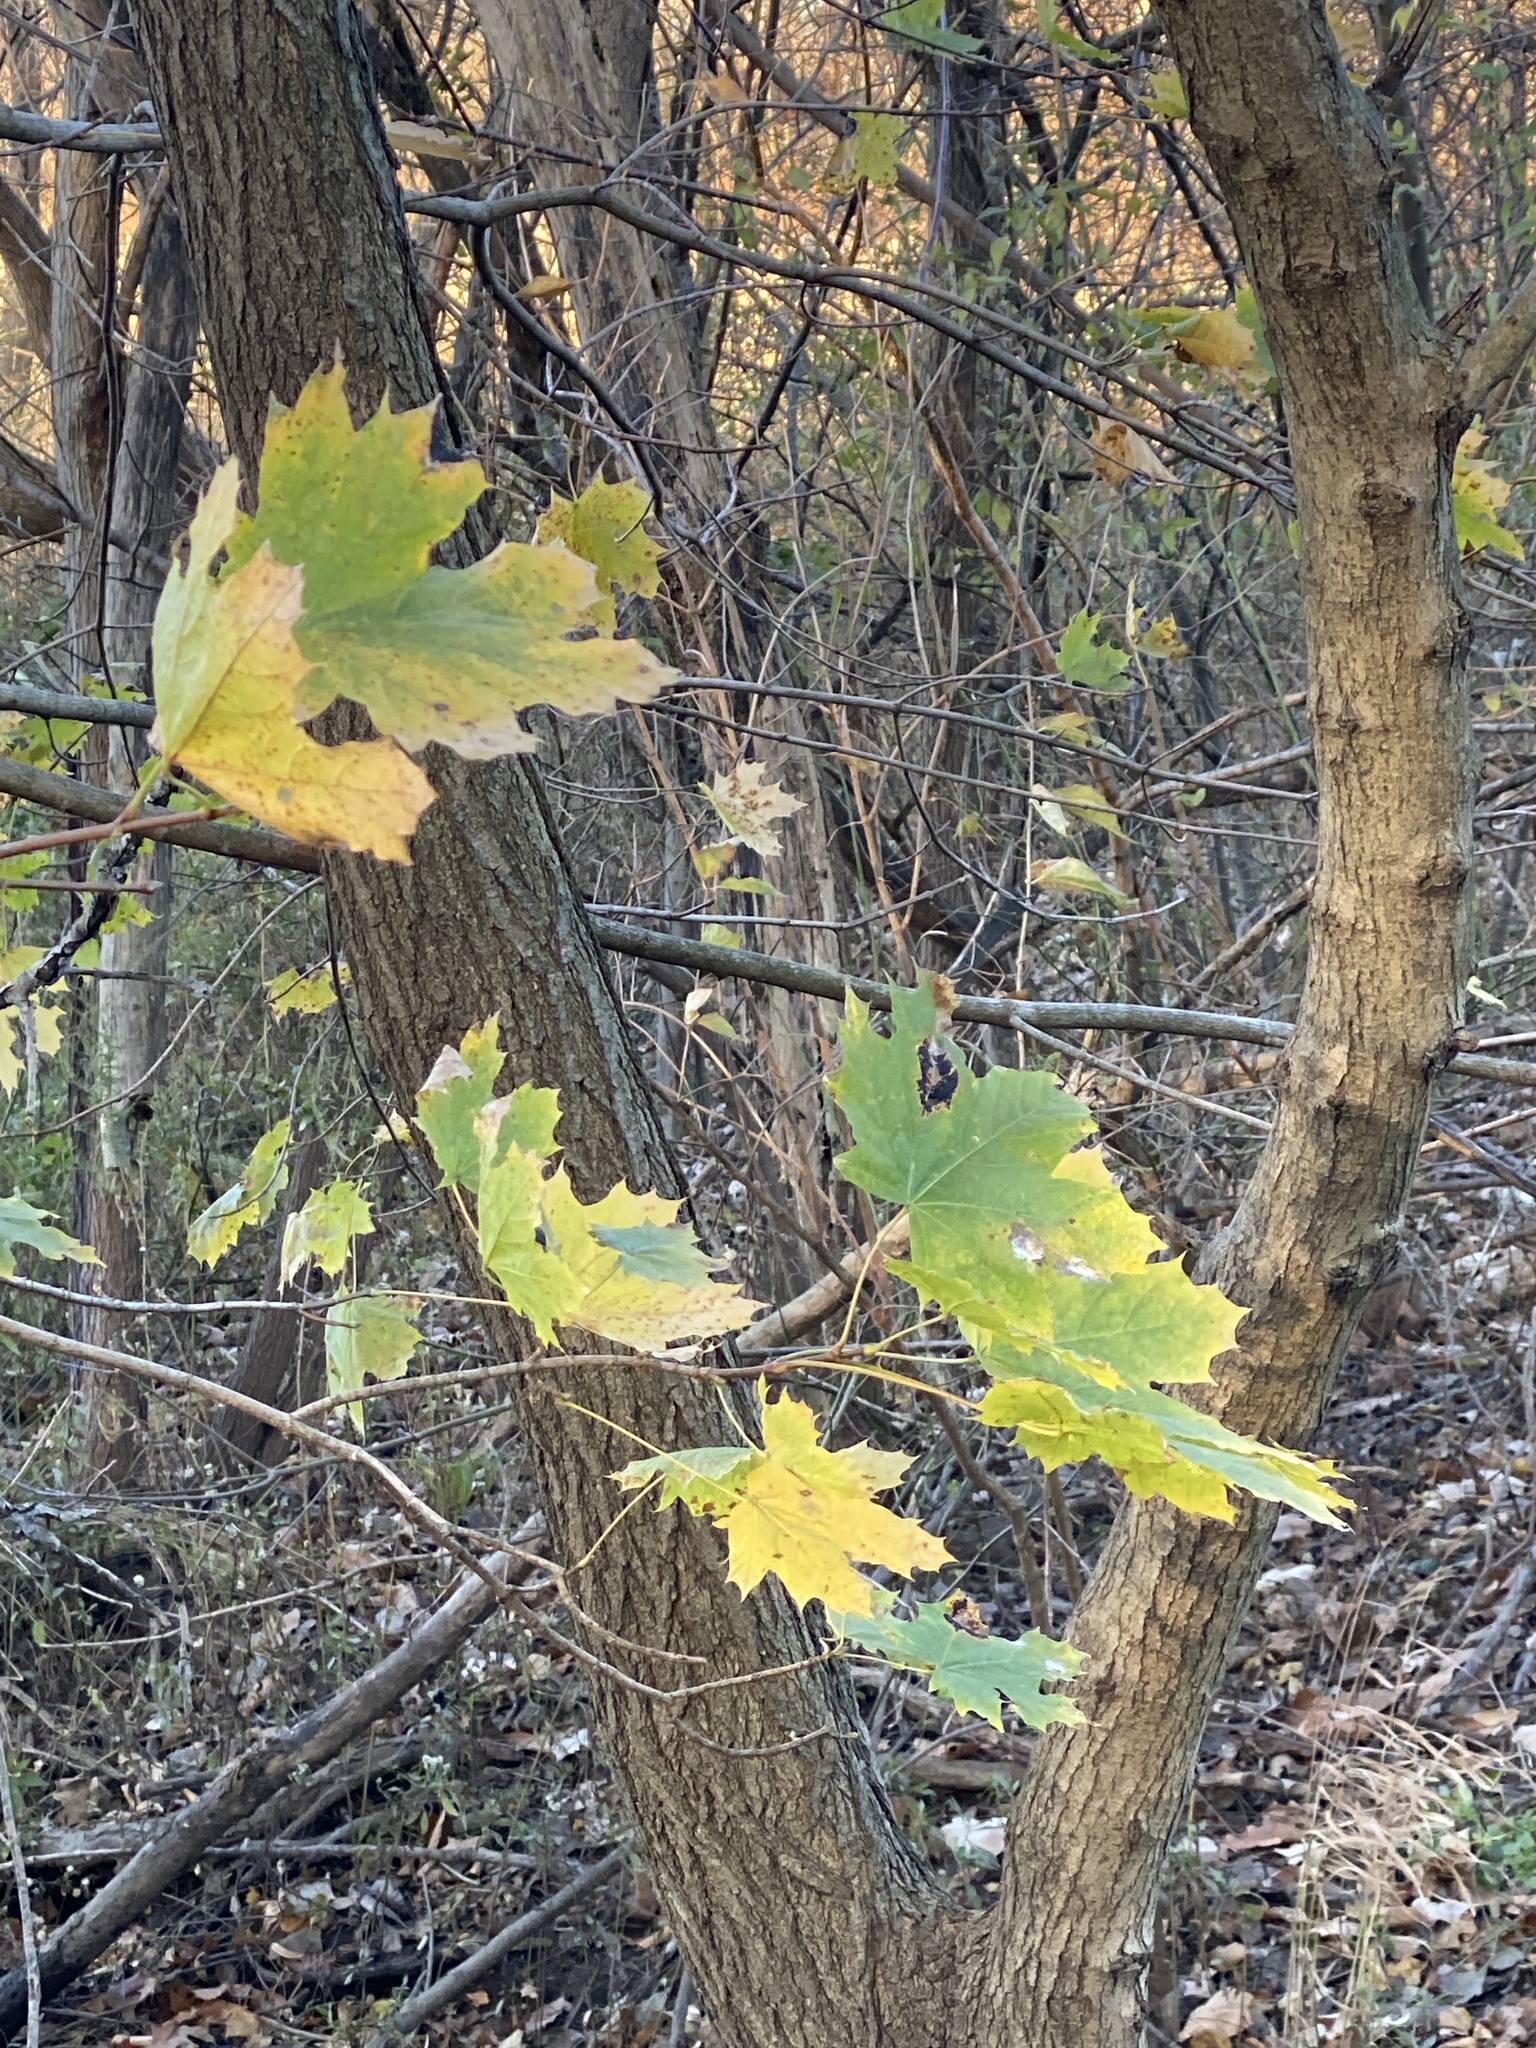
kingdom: Plantae
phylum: Tracheophyta
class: Magnoliopsida
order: Sapindales
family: Sapindaceae
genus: Acer
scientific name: Acer platanoides
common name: Norway maple
